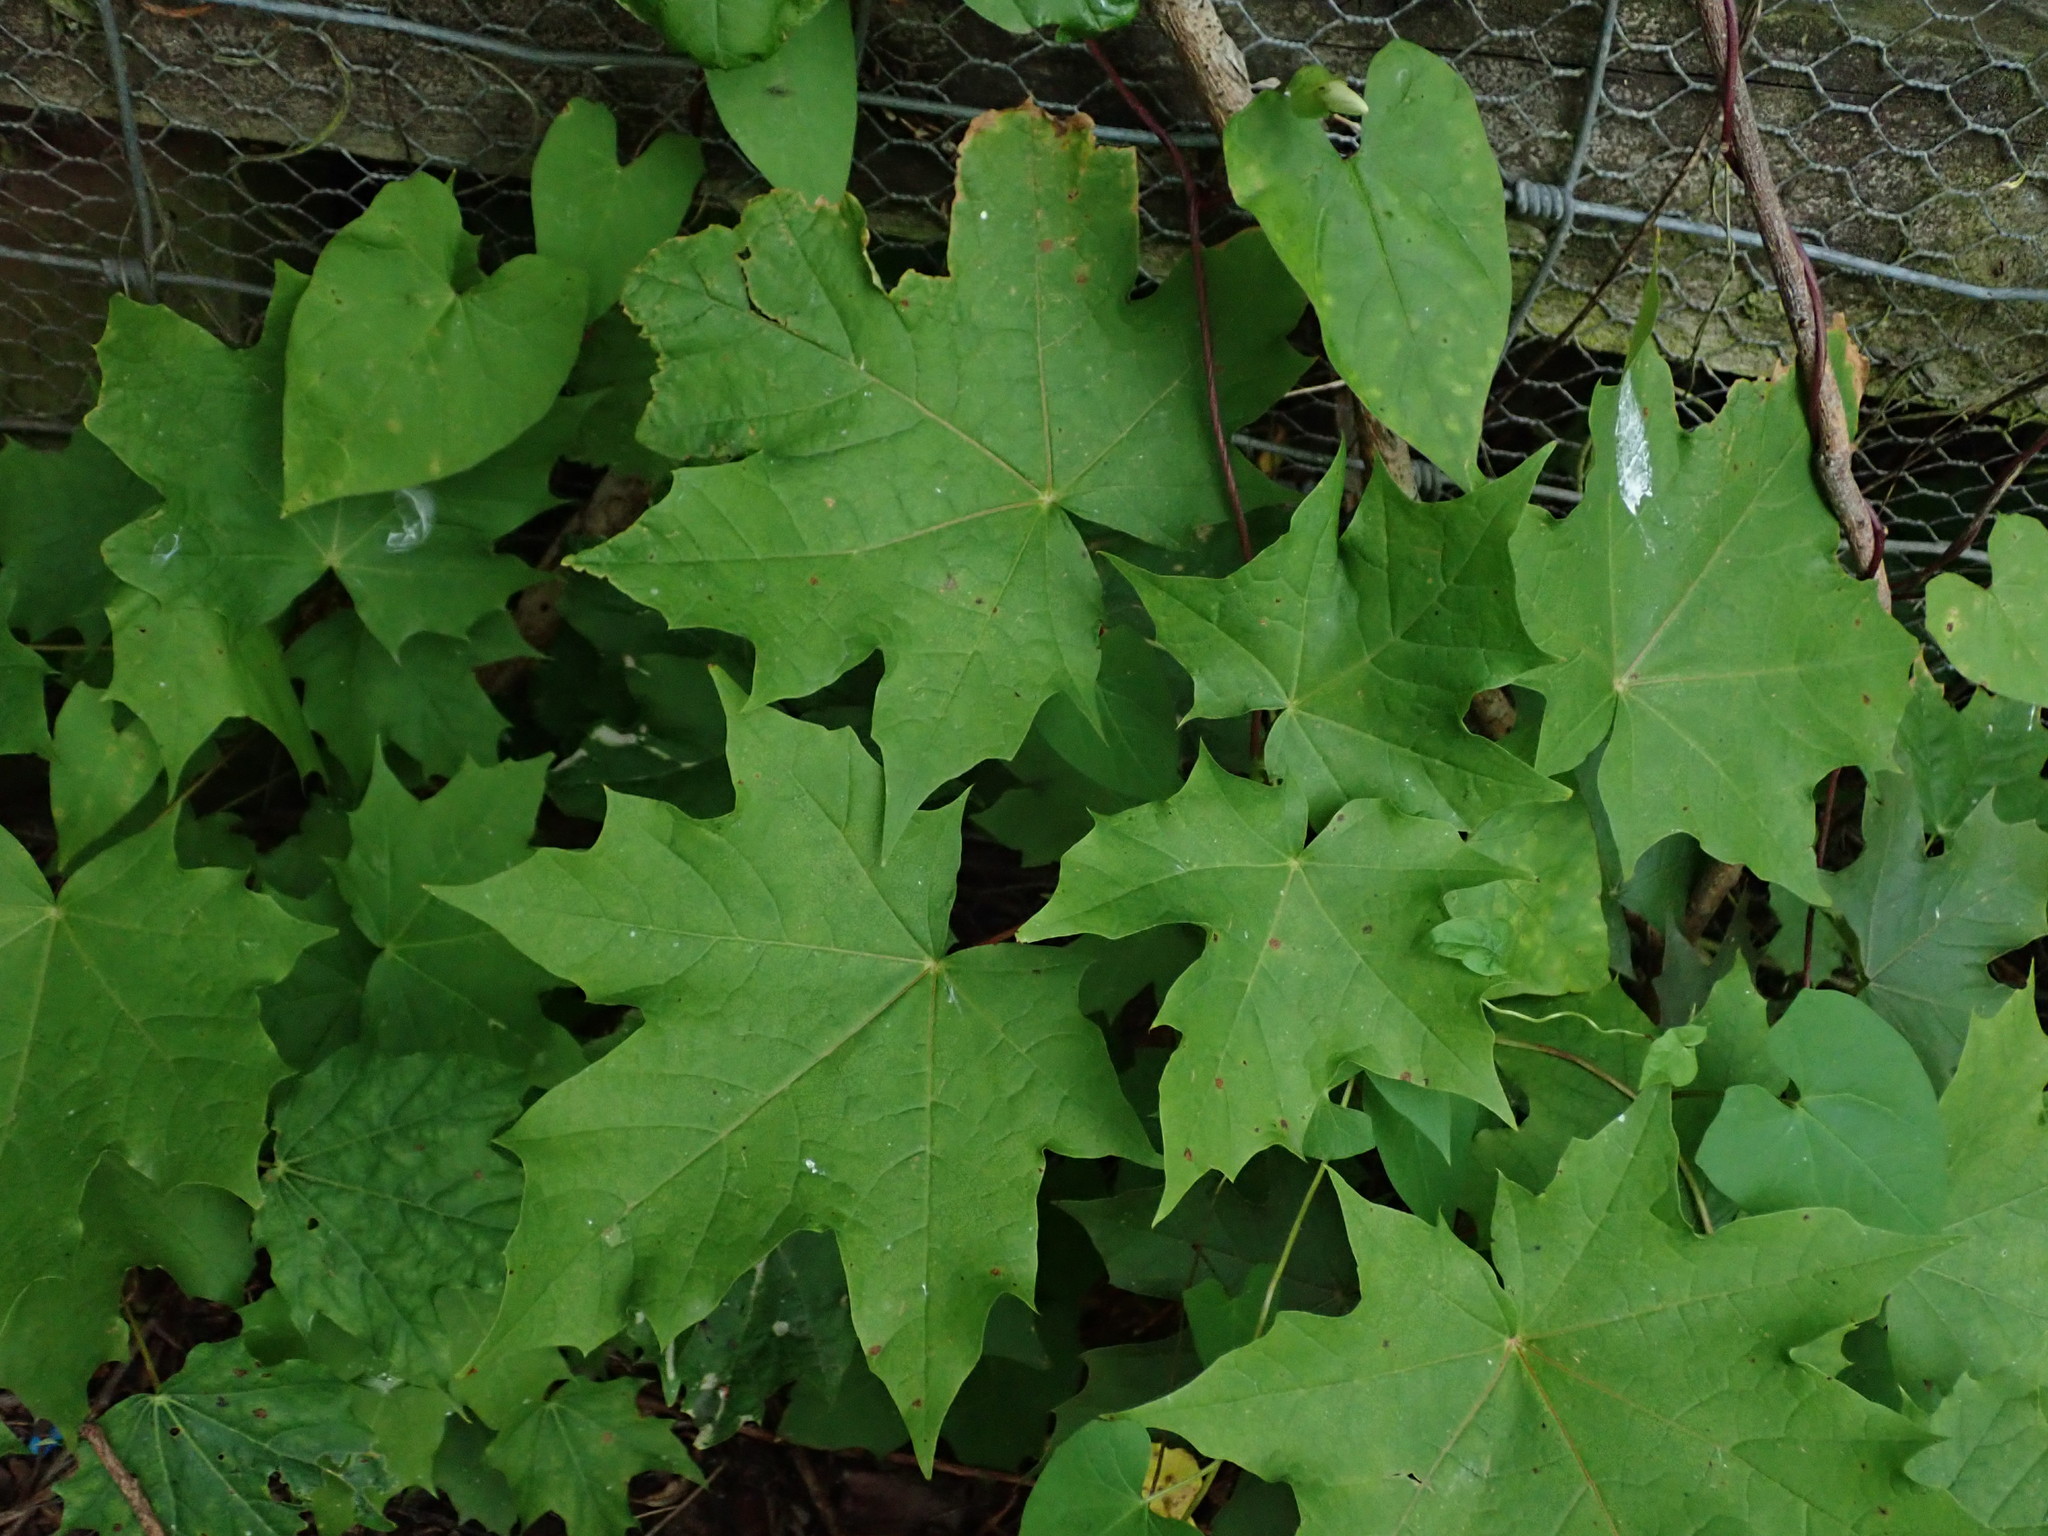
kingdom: Plantae
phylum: Tracheophyta
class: Magnoliopsida
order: Sapindales
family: Sapindaceae
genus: Acer
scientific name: Acer platanoides
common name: Norway maple
